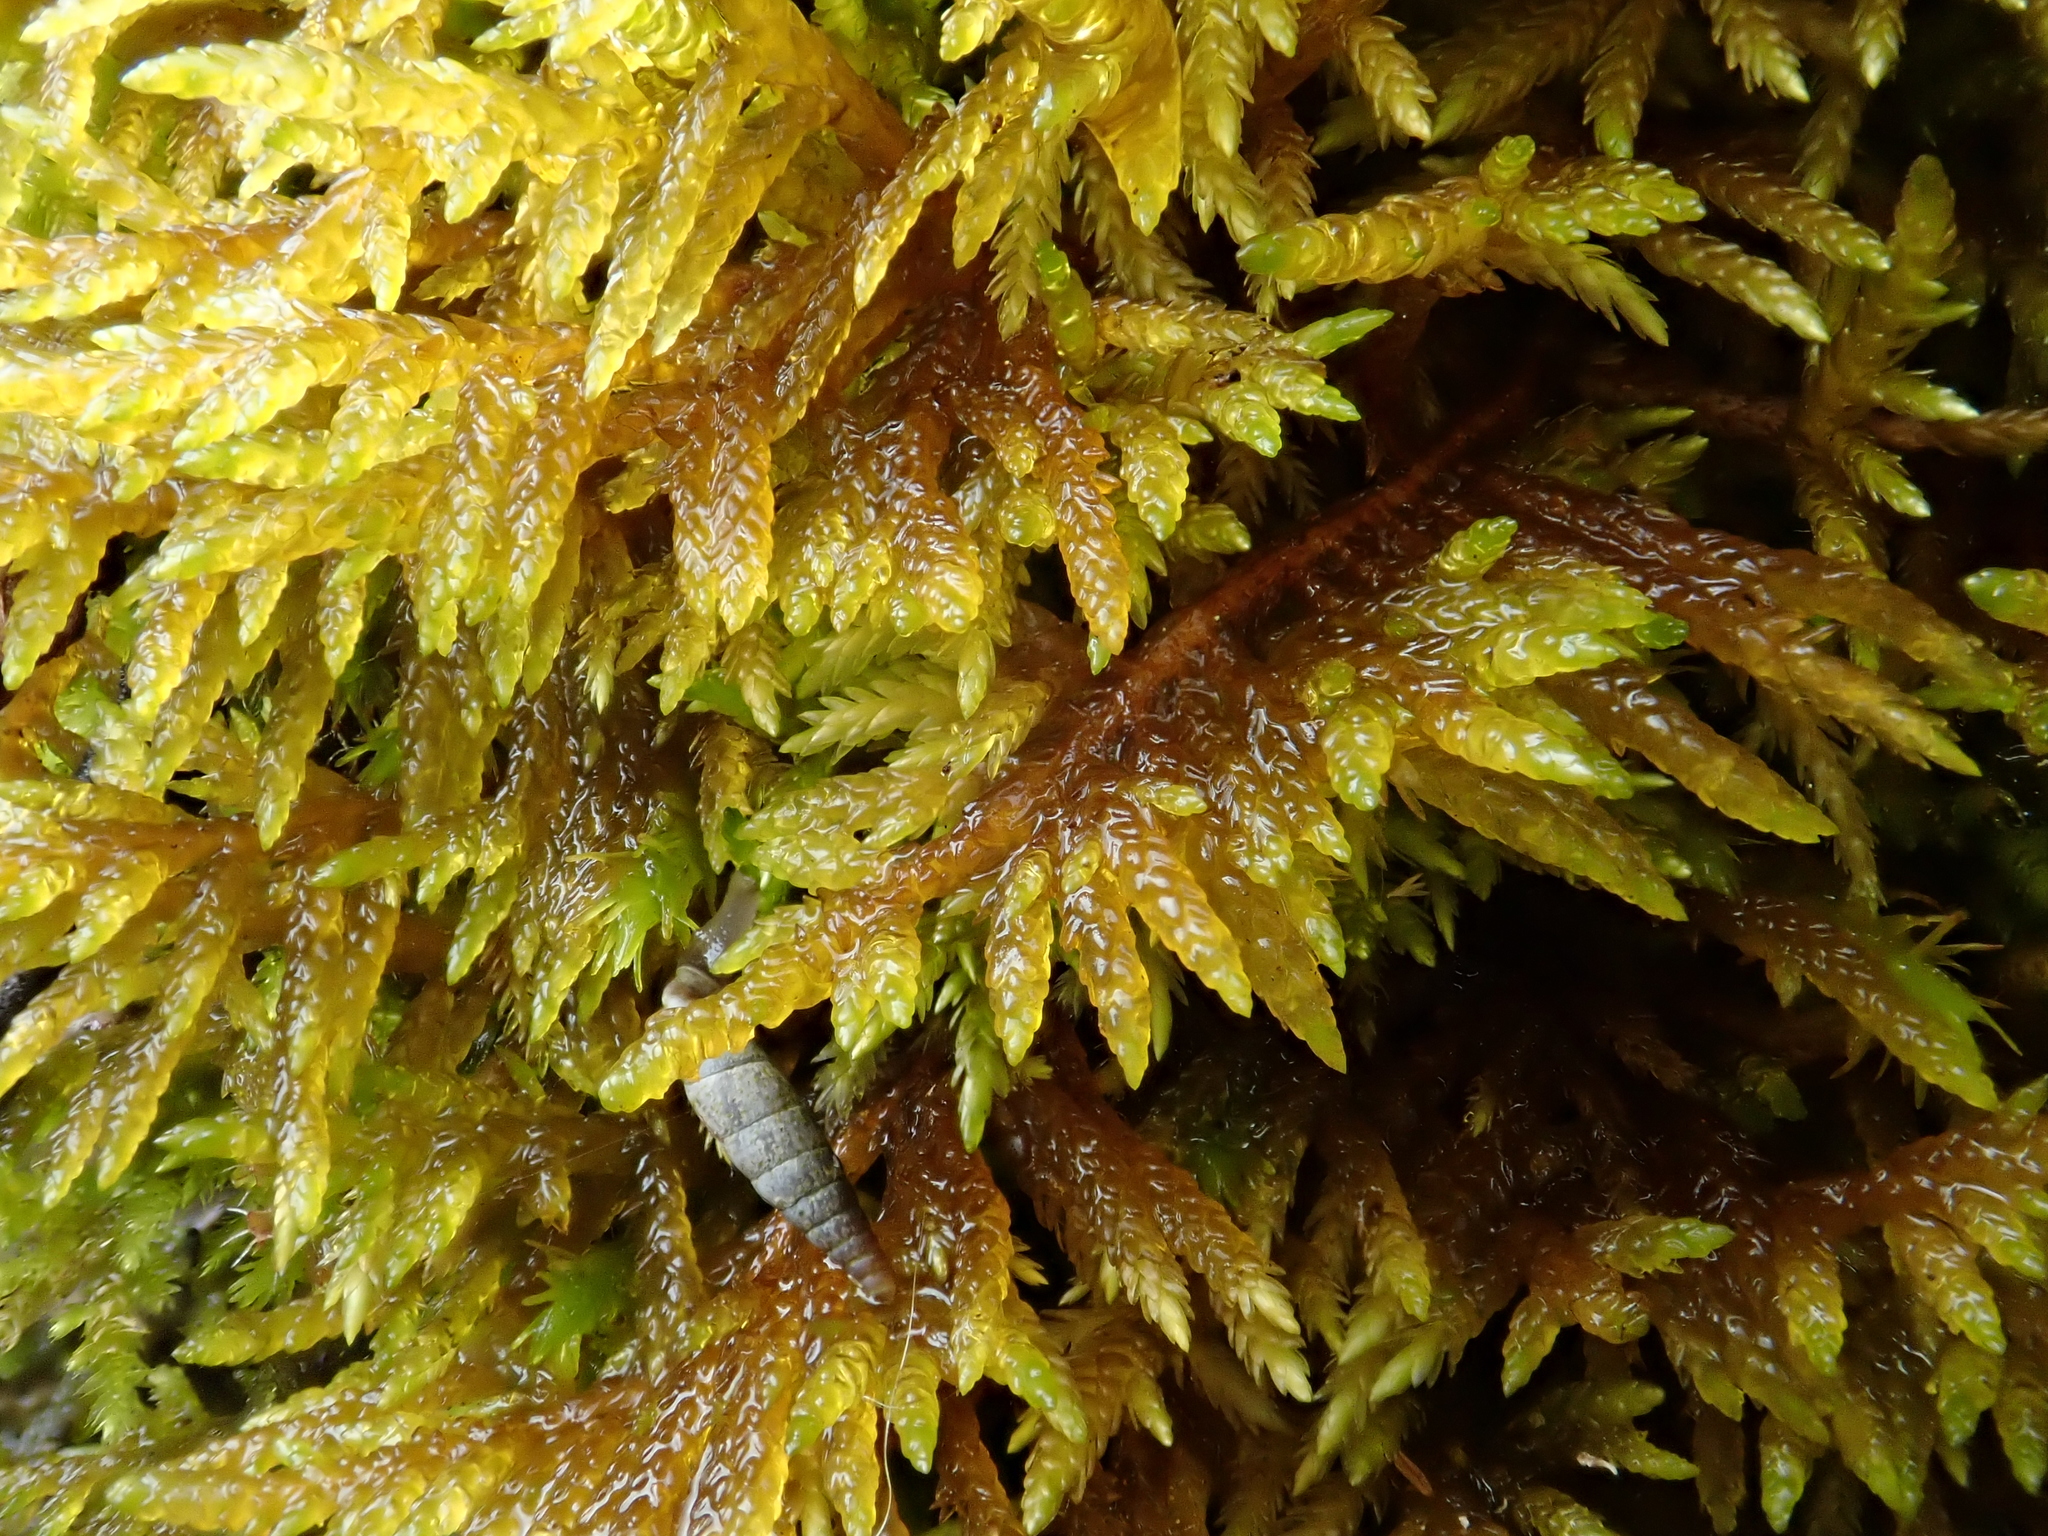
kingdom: Plantae
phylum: Bryophyta
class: Bryopsida
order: Hypnales
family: Entodontaceae
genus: Entodon
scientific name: Entodon concinnus
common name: Montagne's cylinder-moss
